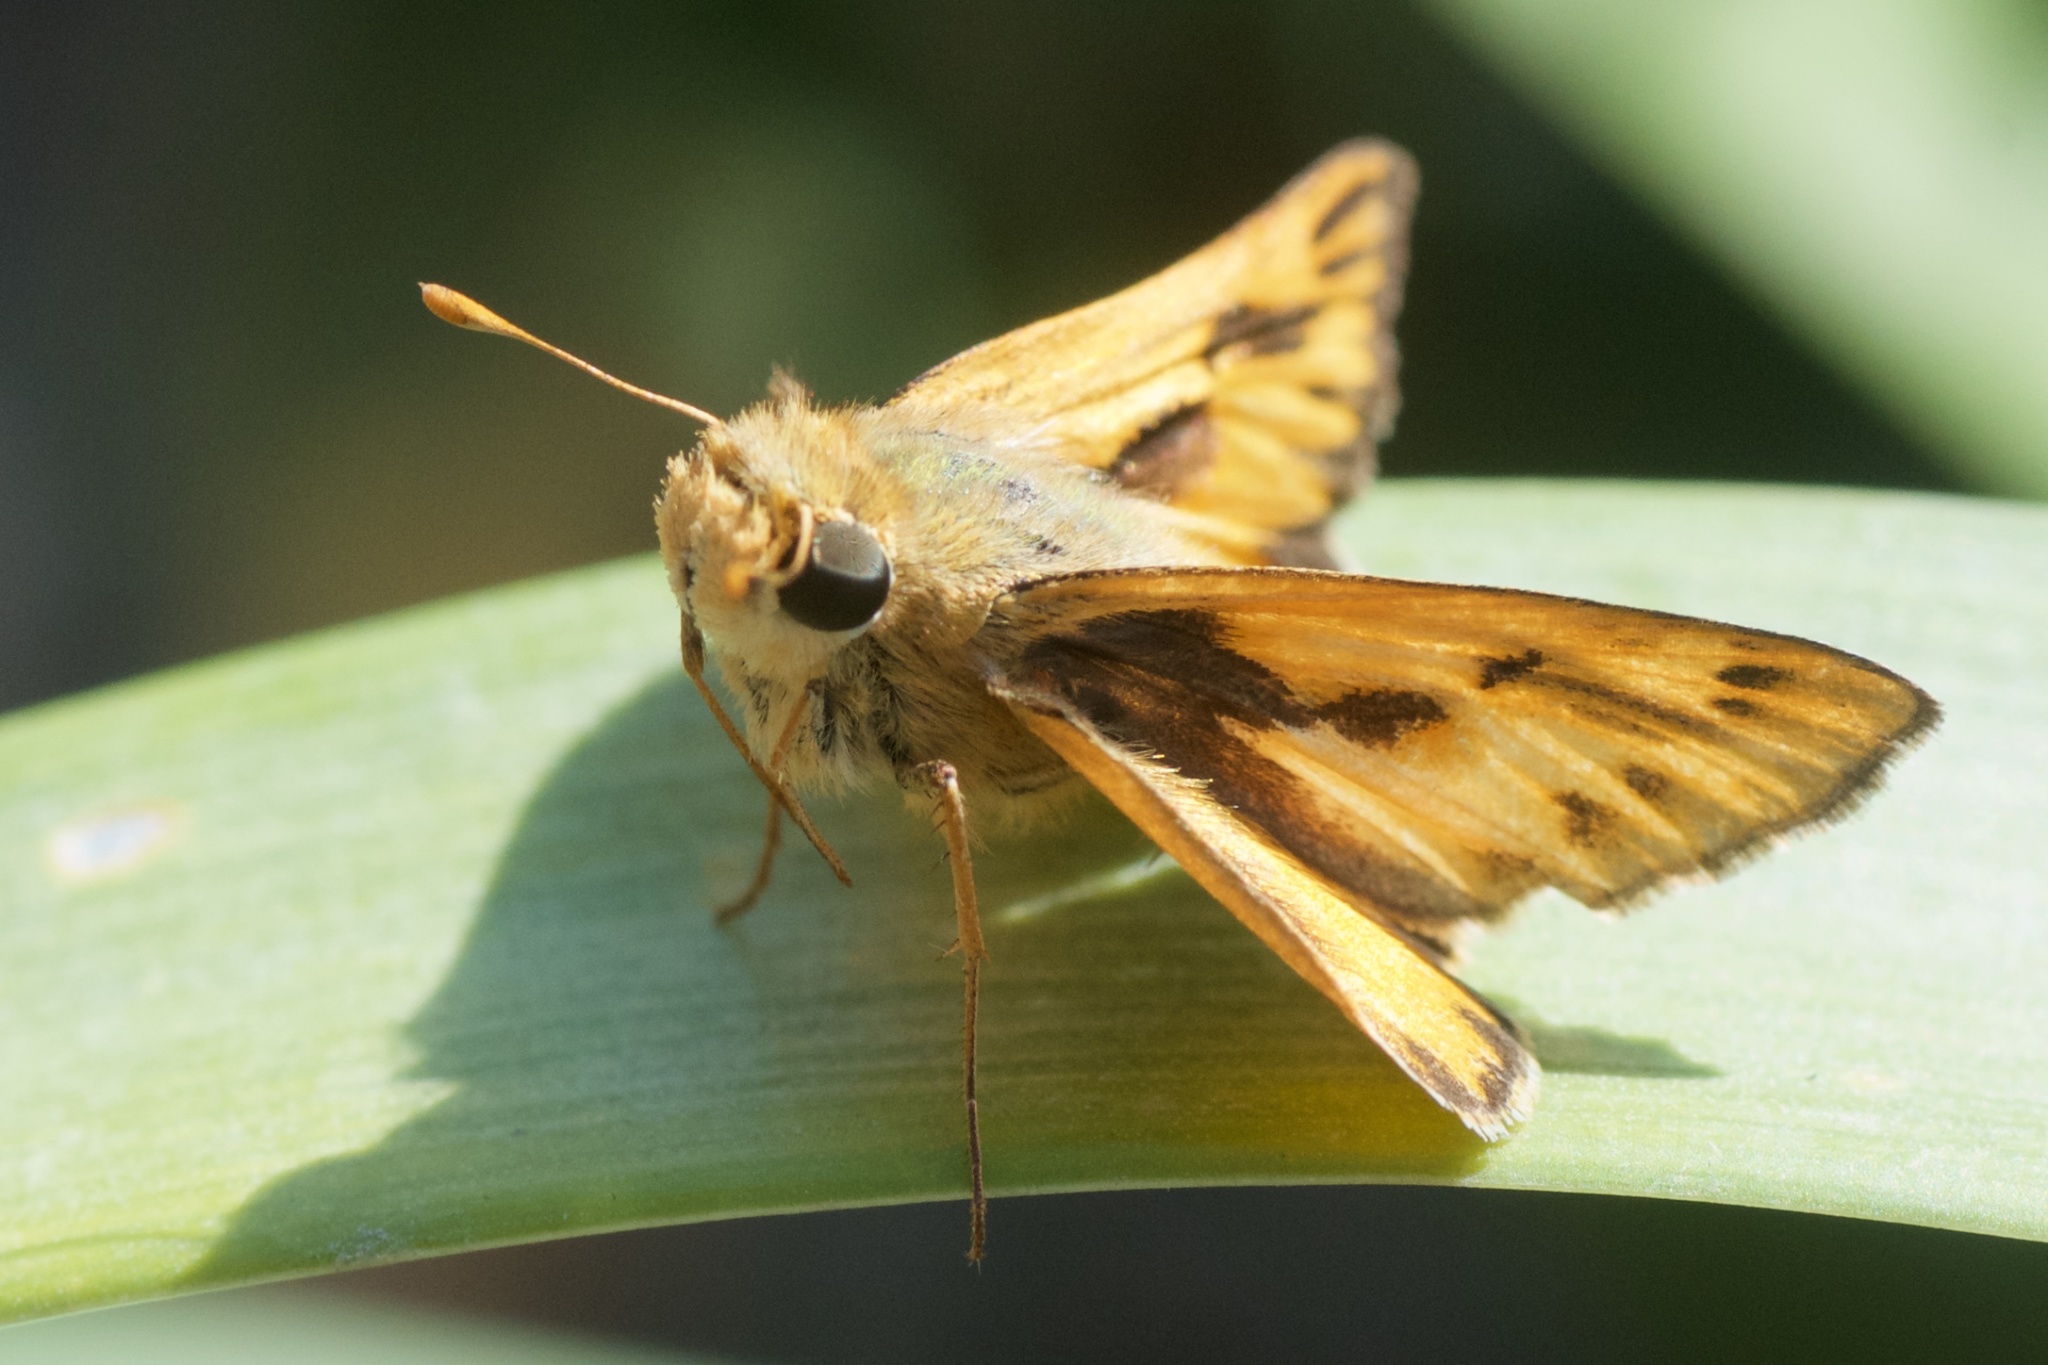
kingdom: Animalia
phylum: Arthropoda
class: Insecta
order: Lepidoptera
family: Hesperiidae
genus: Hylephila
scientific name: Hylephila phyleus
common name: Fiery skipper
